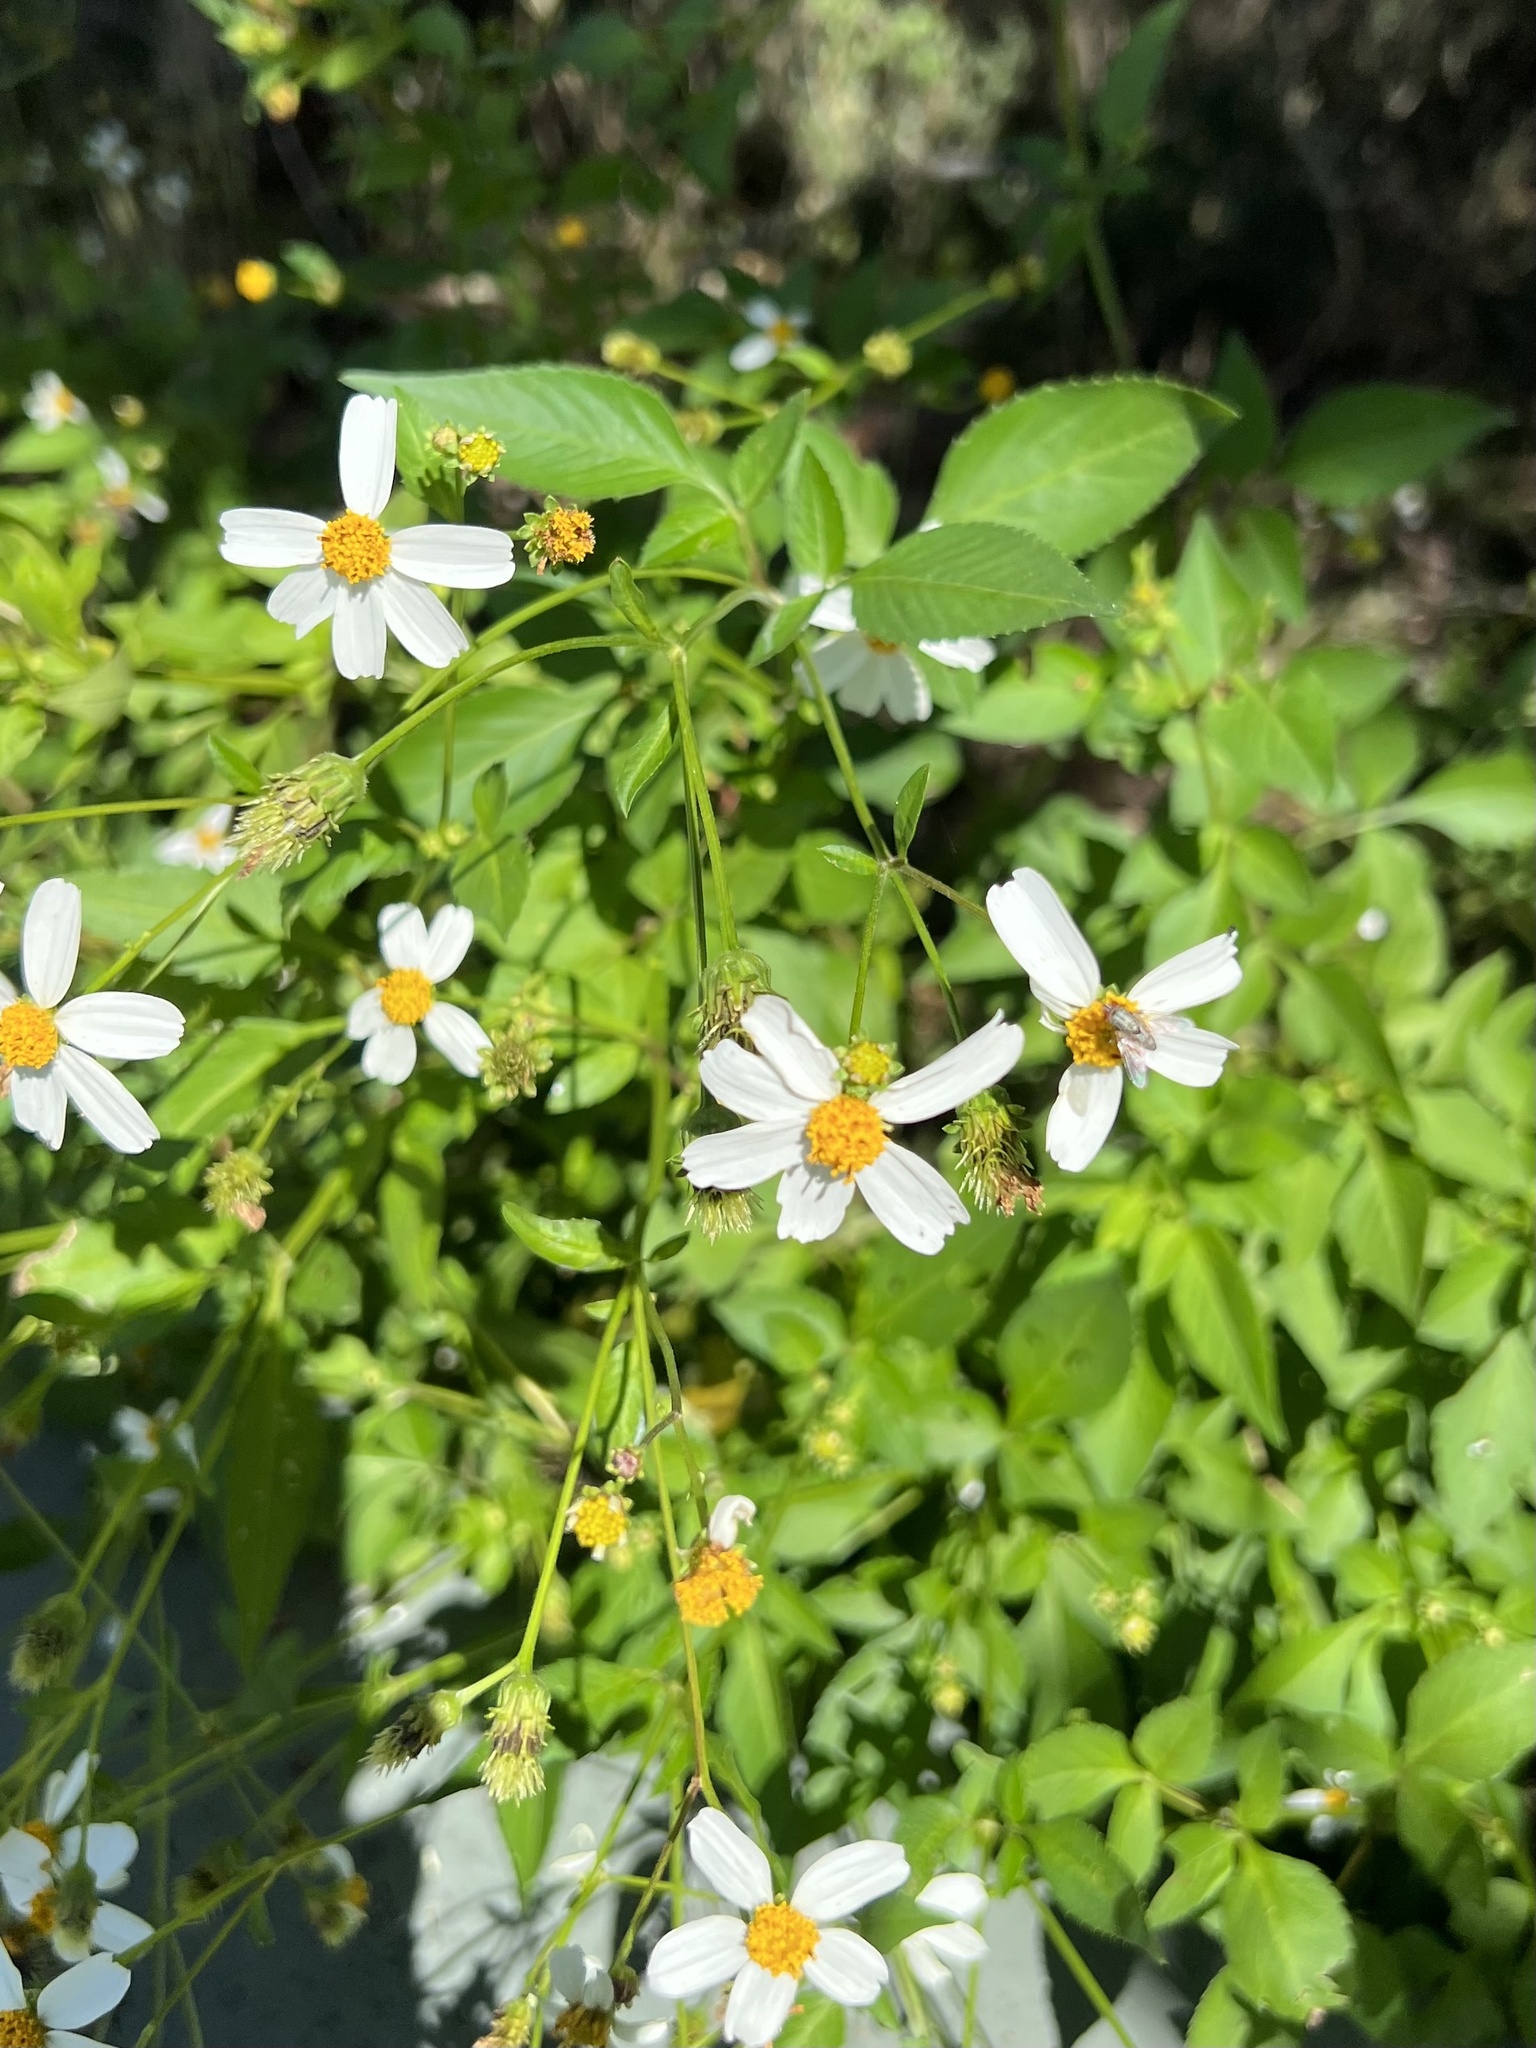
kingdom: Plantae
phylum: Tracheophyta
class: Magnoliopsida
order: Asterales
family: Asteraceae
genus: Bidens
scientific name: Bidens alba
